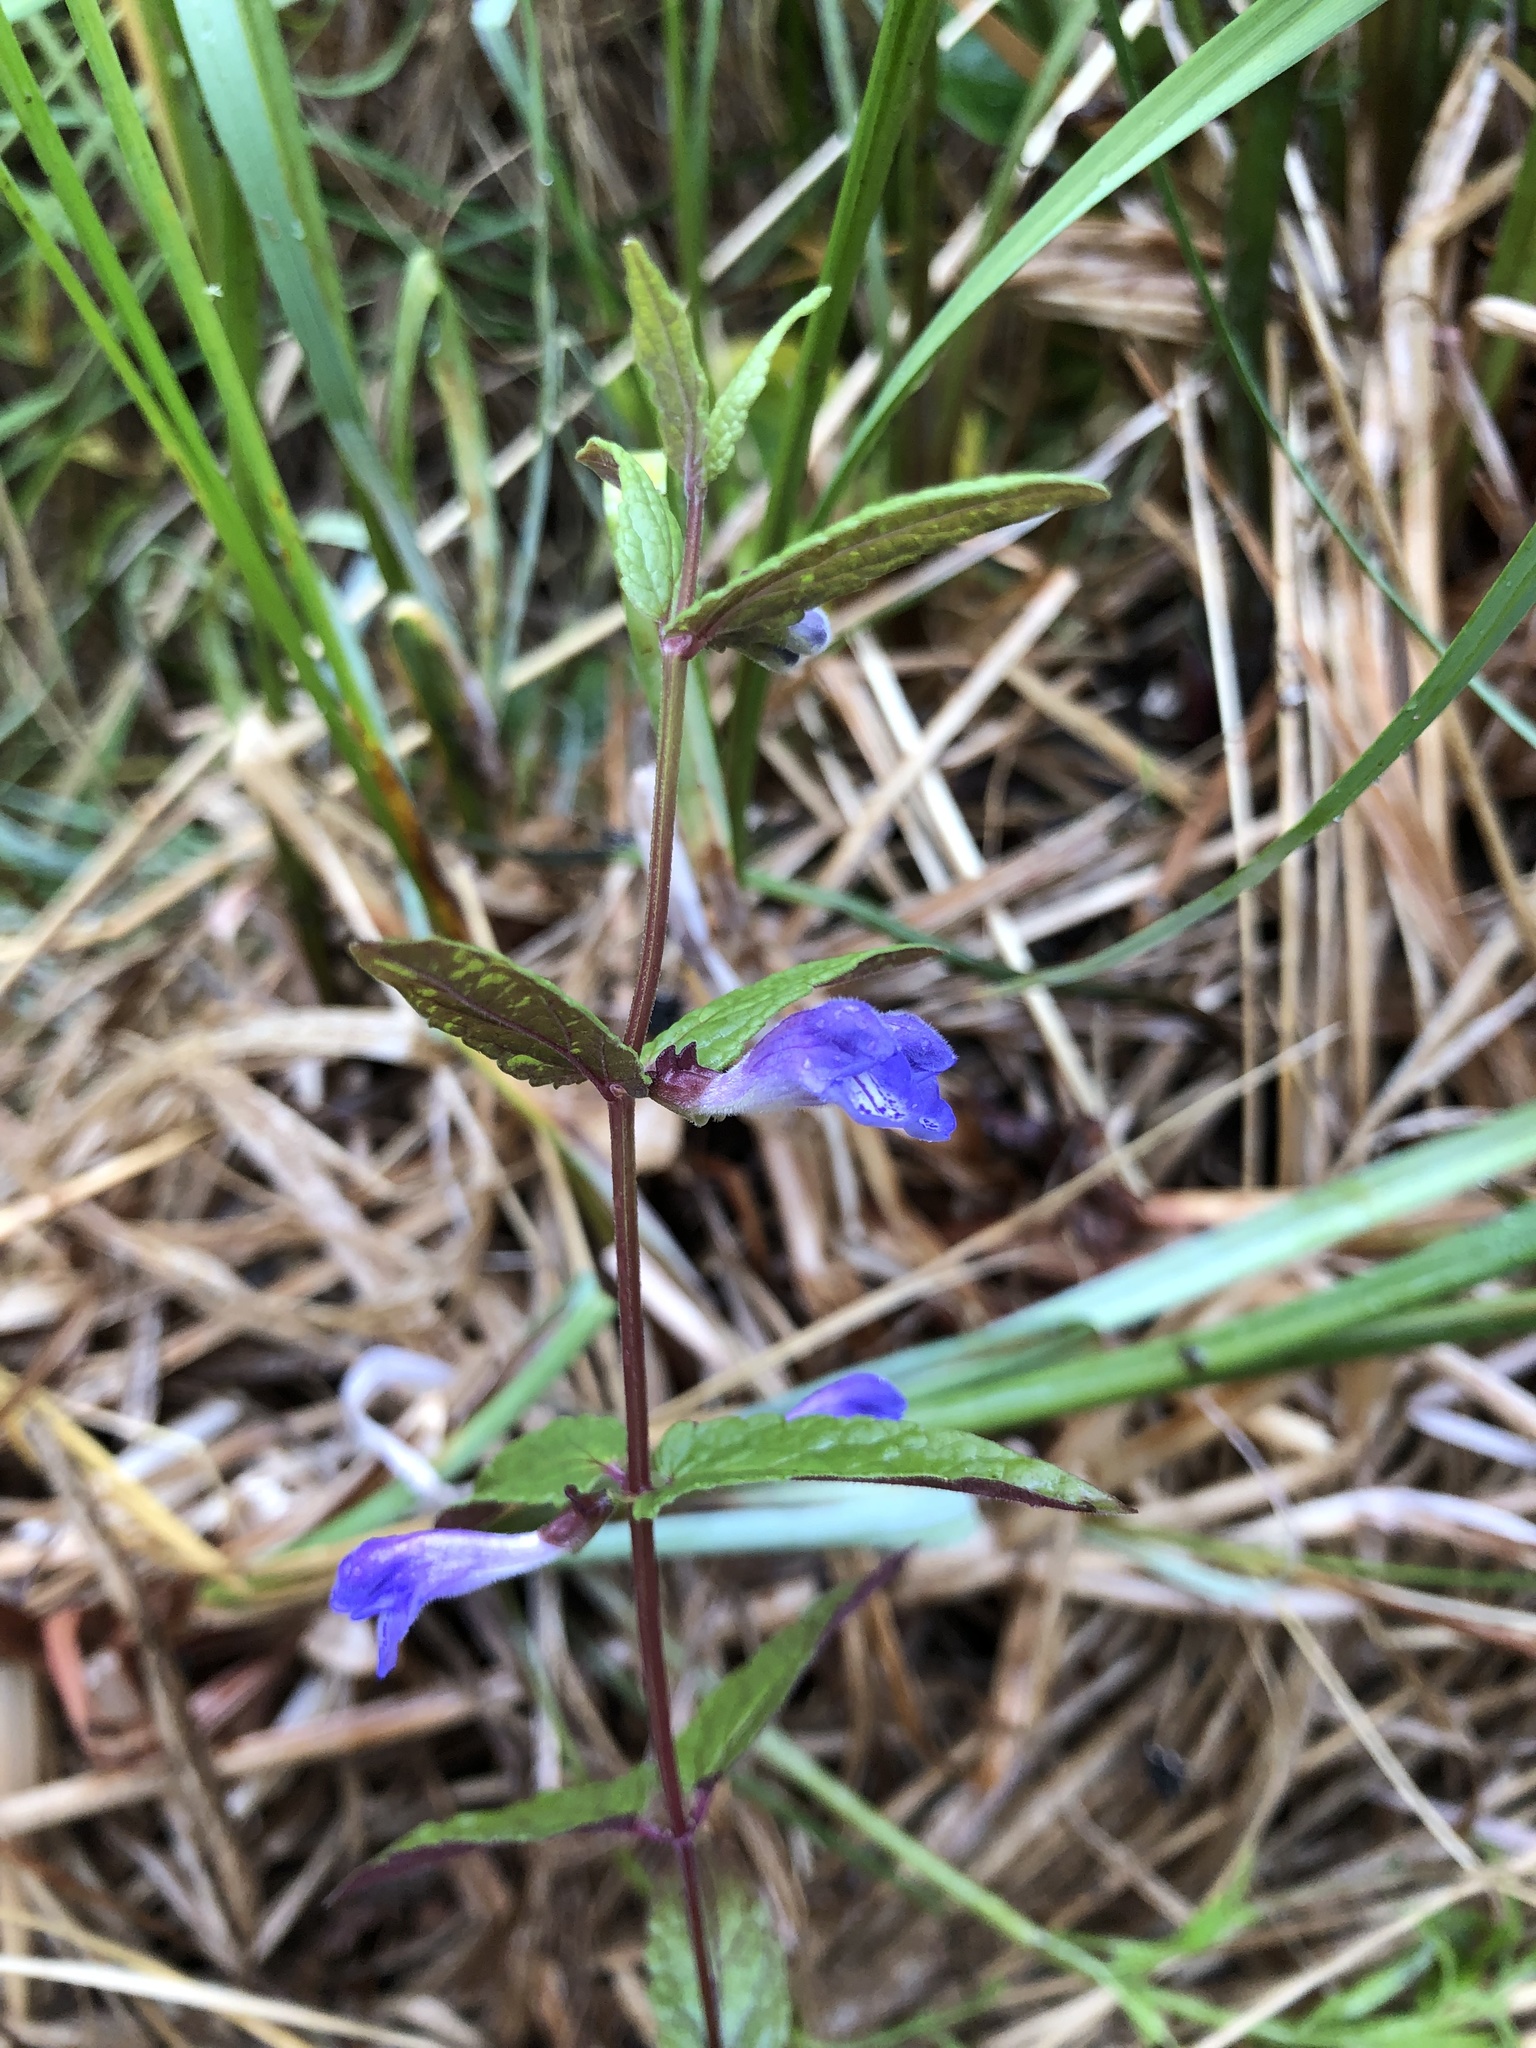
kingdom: Plantae
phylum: Tracheophyta
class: Magnoliopsida
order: Lamiales
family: Lamiaceae
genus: Scutellaria
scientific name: Scutellaria galericulata
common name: Skullcap
